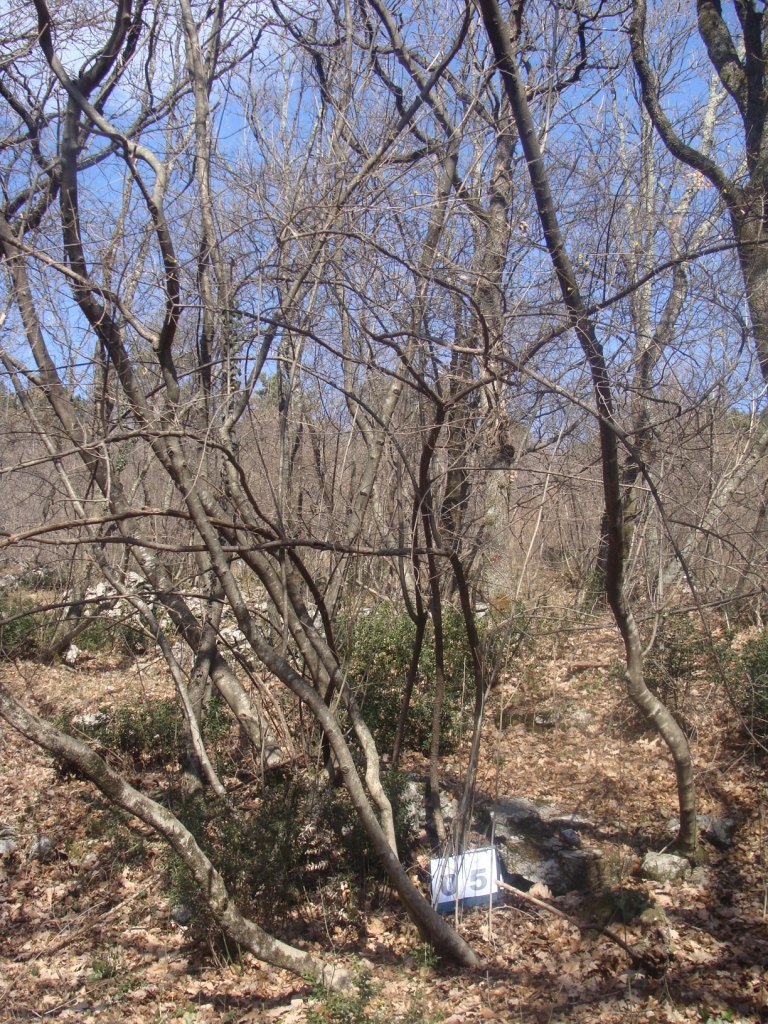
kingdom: Plantae
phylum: Tracheophyta
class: Magnoliopsida
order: Cornales
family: Cornaceae
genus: Cornus
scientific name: Cornus mas
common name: Cornelian-cherry
